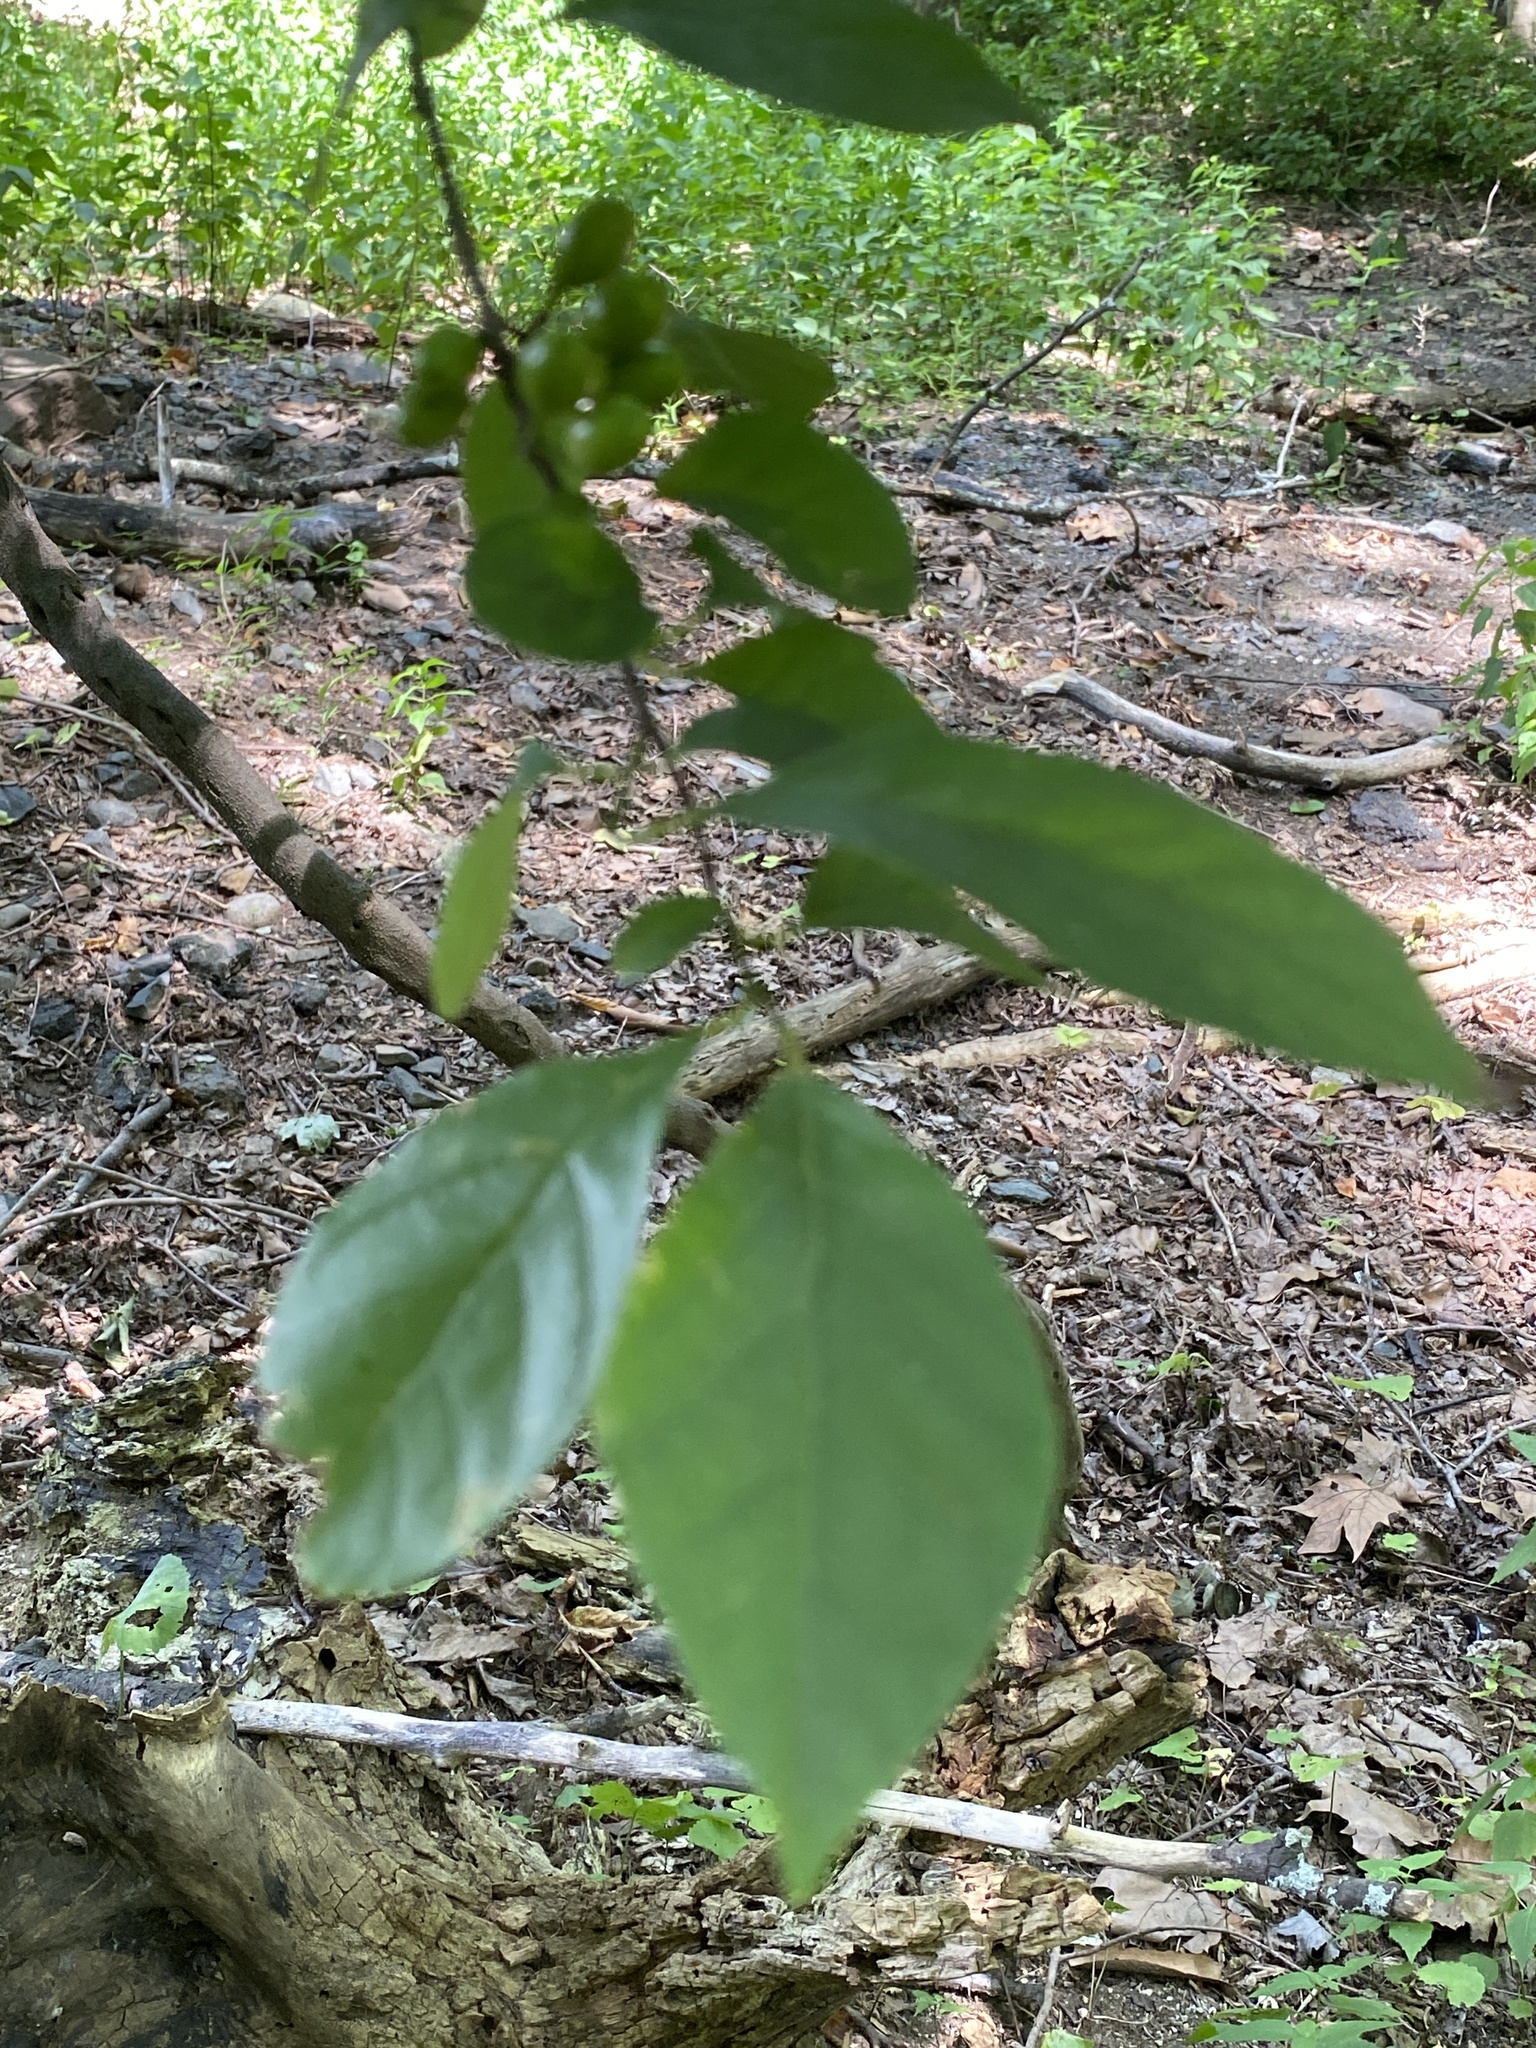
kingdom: Plantae
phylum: Tracheophyta
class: Magnoliopsida
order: Laurales
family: Lauraceae
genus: Lindera
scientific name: Lindera benzoin
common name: Spicebush
